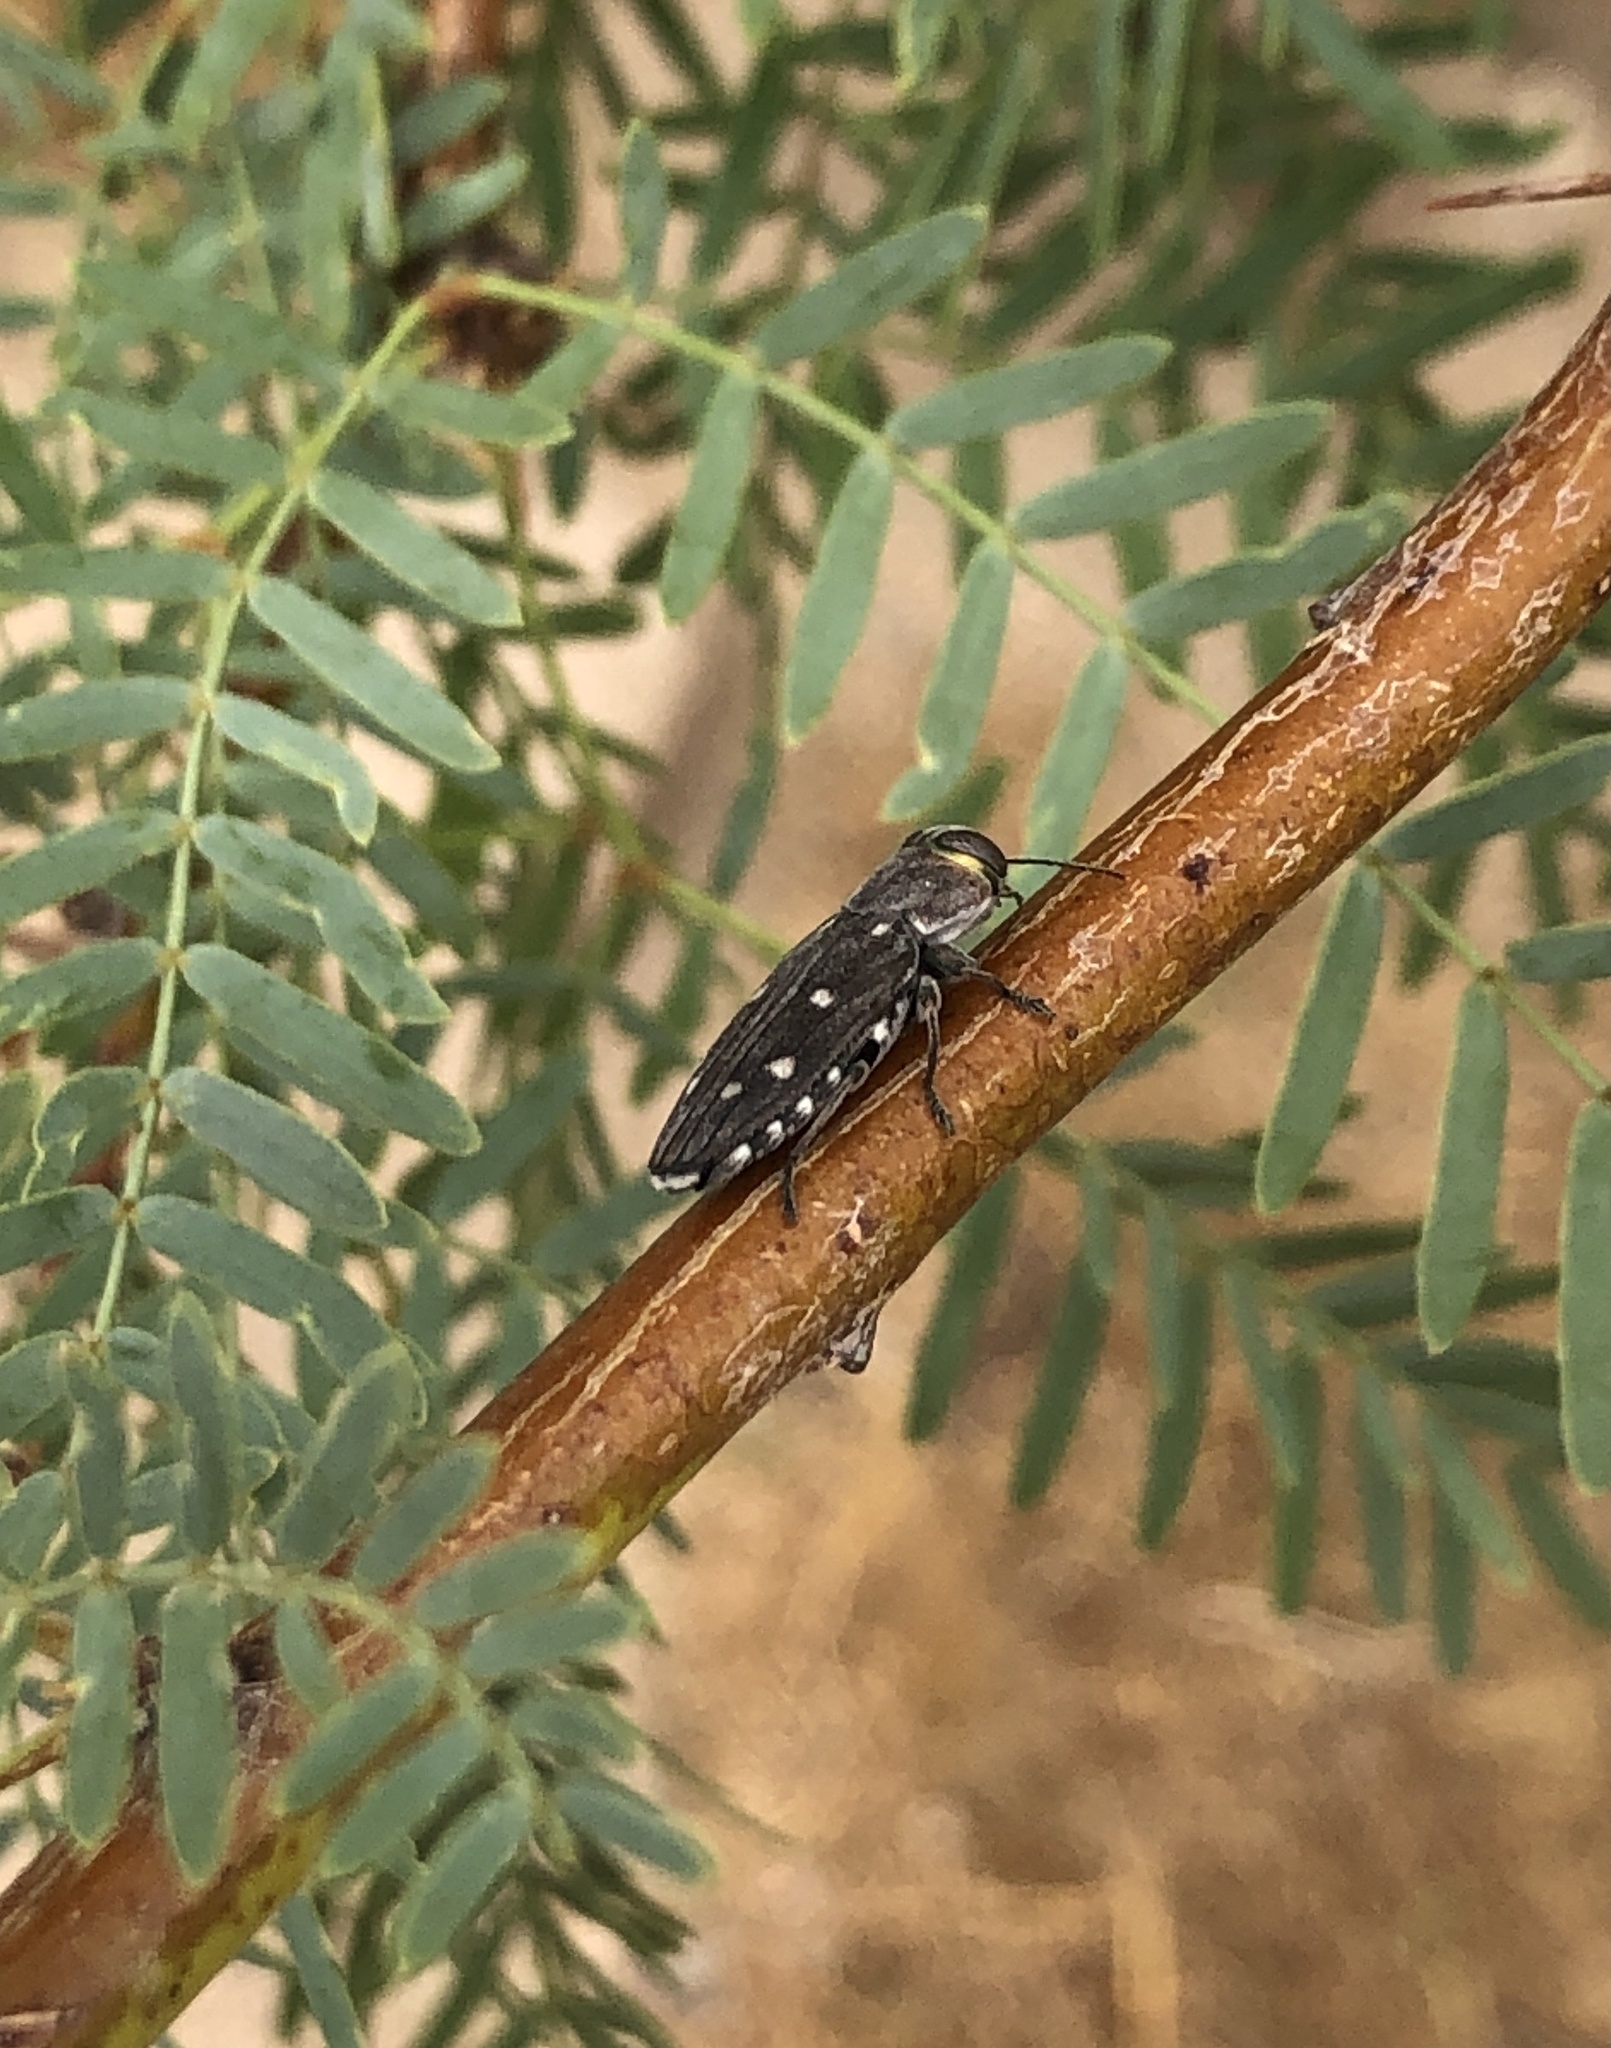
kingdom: Animalia
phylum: Arthropoda
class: Insecta
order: Coleoptera
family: Buprestidae
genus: Chrysobothris
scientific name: Chrysobothris octocola
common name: Jewel beetle
